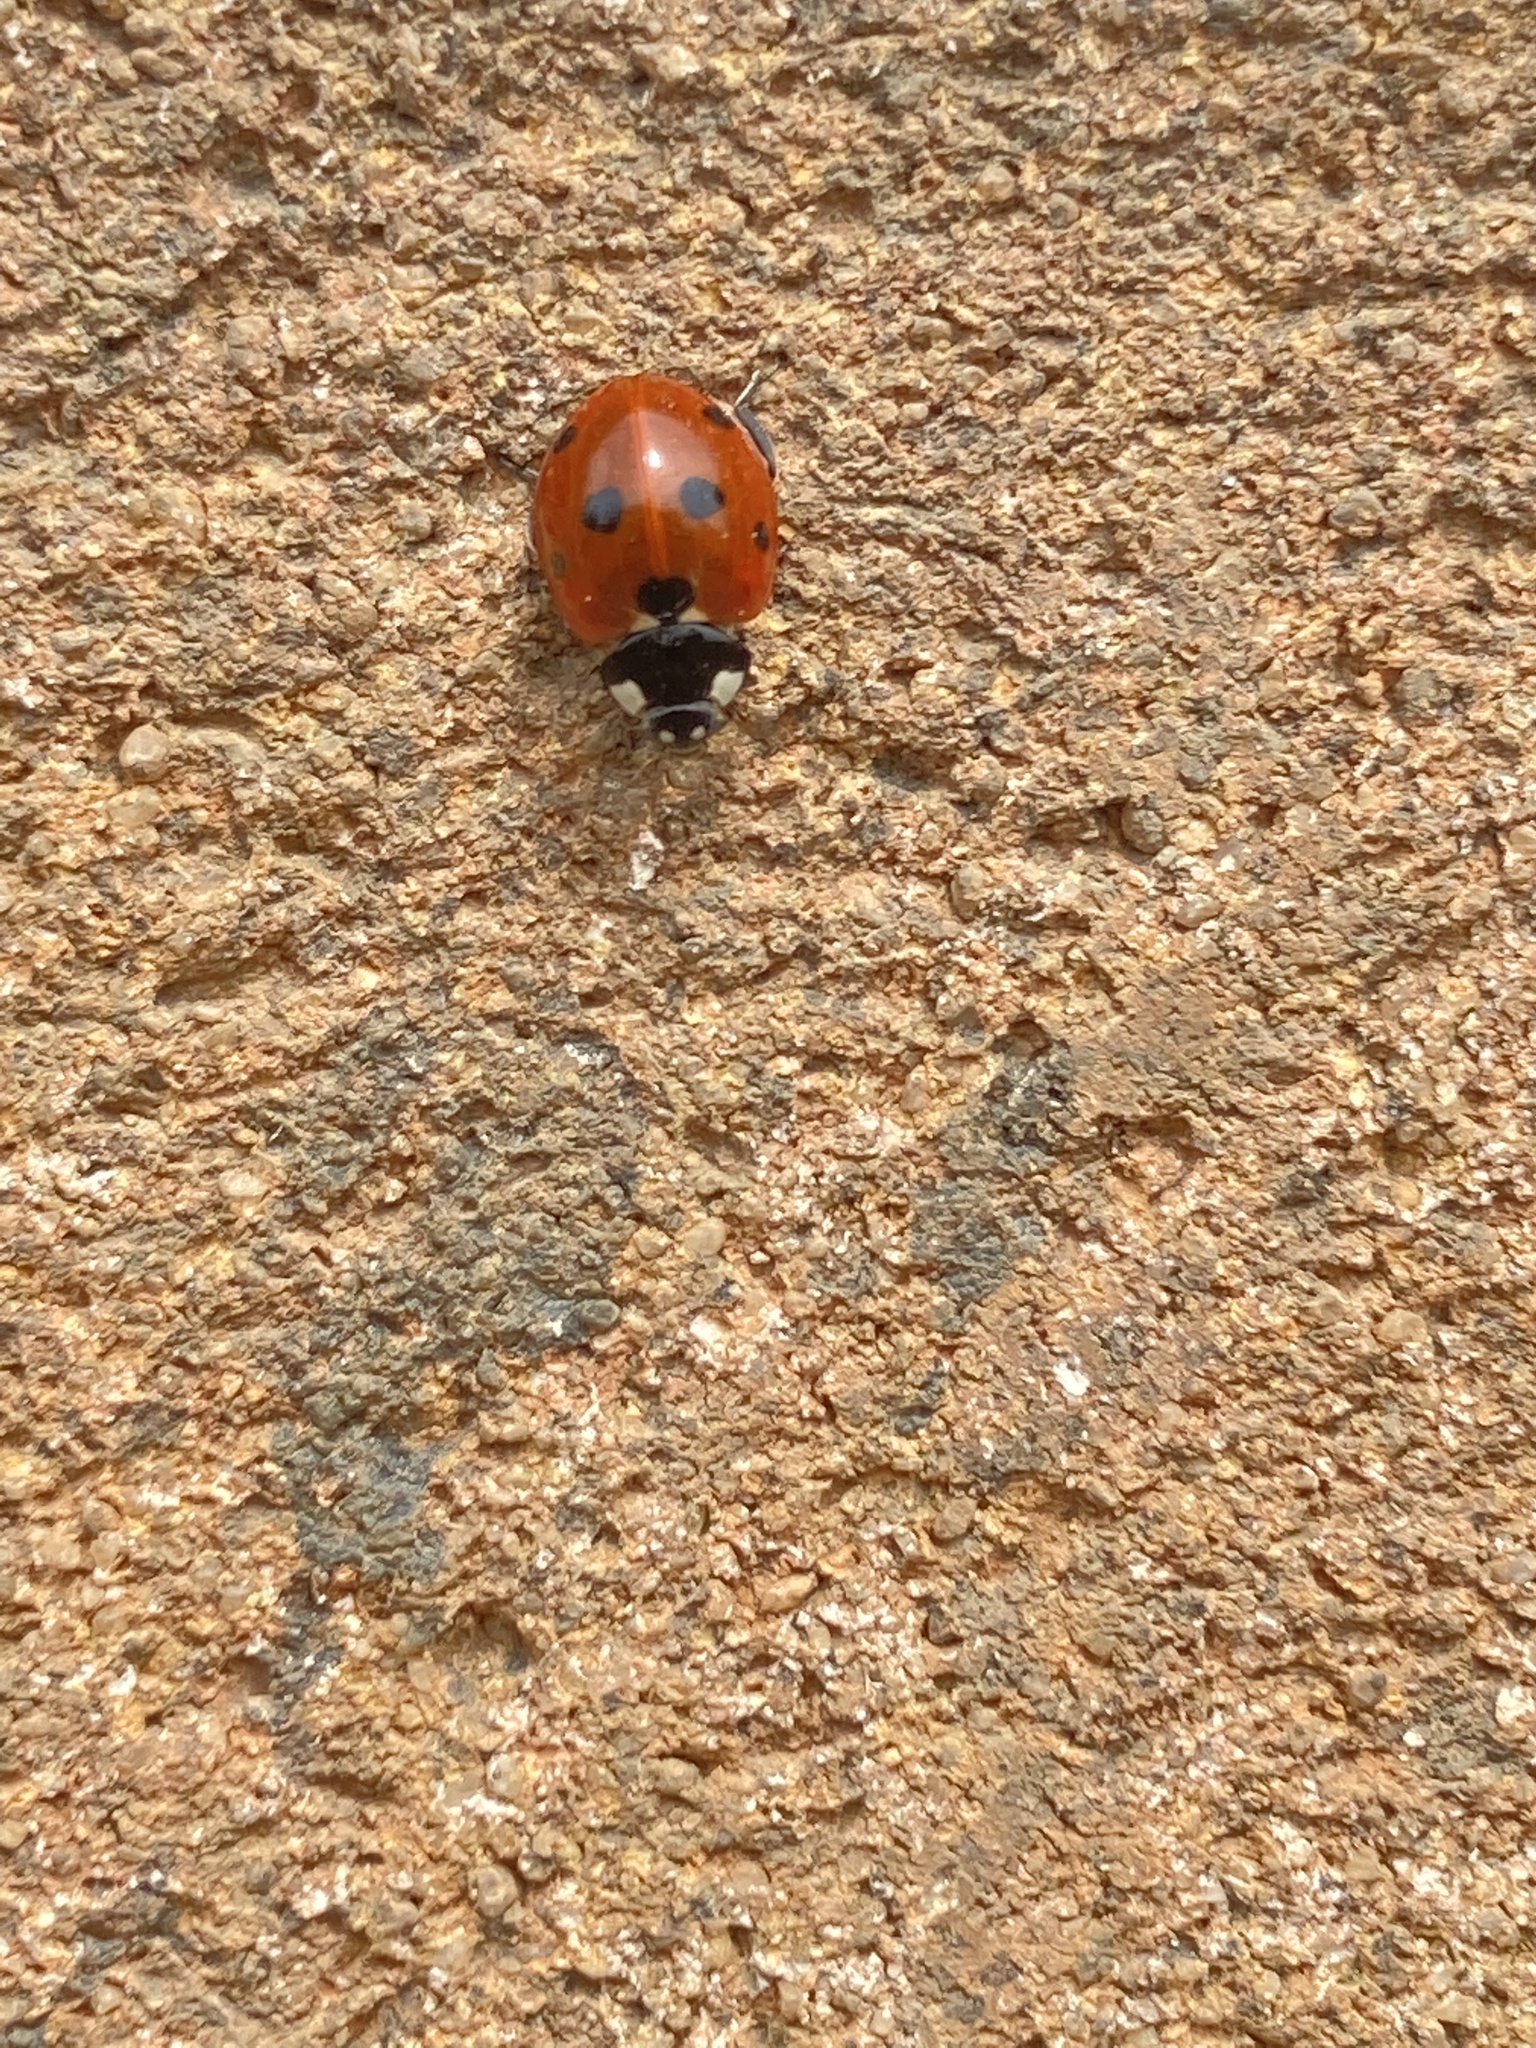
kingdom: Animalia
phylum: Arthropoda
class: Insecta
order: Coleoptera
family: Coccinellidae
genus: Coccinella
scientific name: Coccinella septempunctata
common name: Sevenspotted lady beetle
